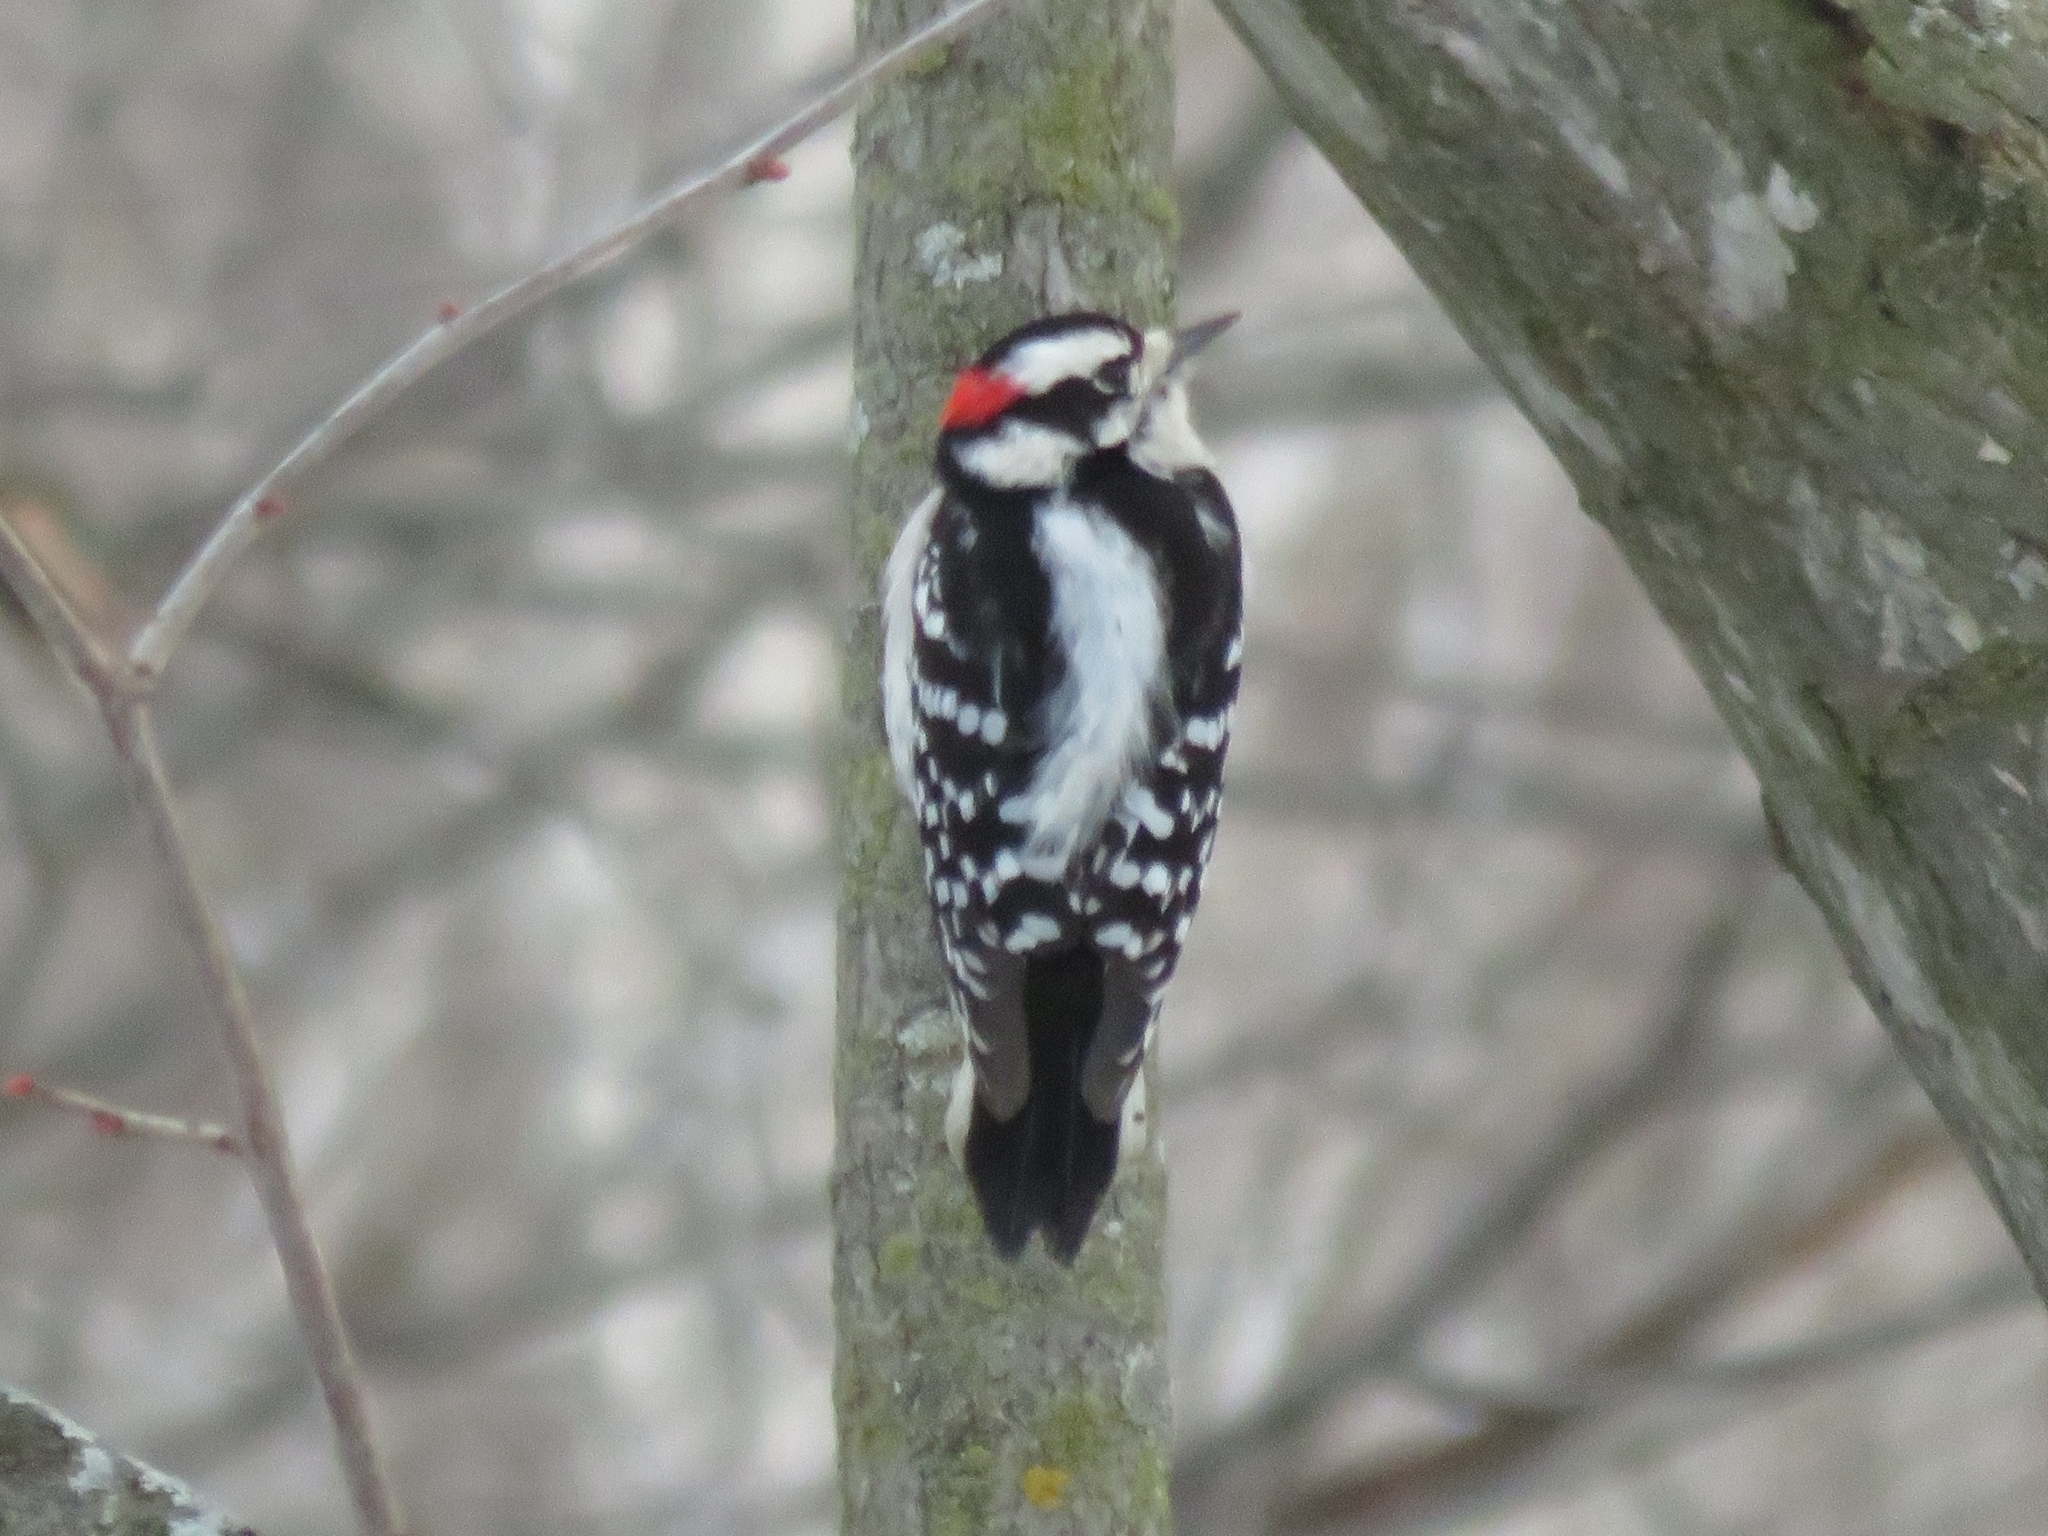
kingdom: Animalia
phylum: Chordata
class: Aves
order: Piciformes
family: Picidae
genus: Dryobates
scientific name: Dryobates pubescens
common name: Downy woodpecker
